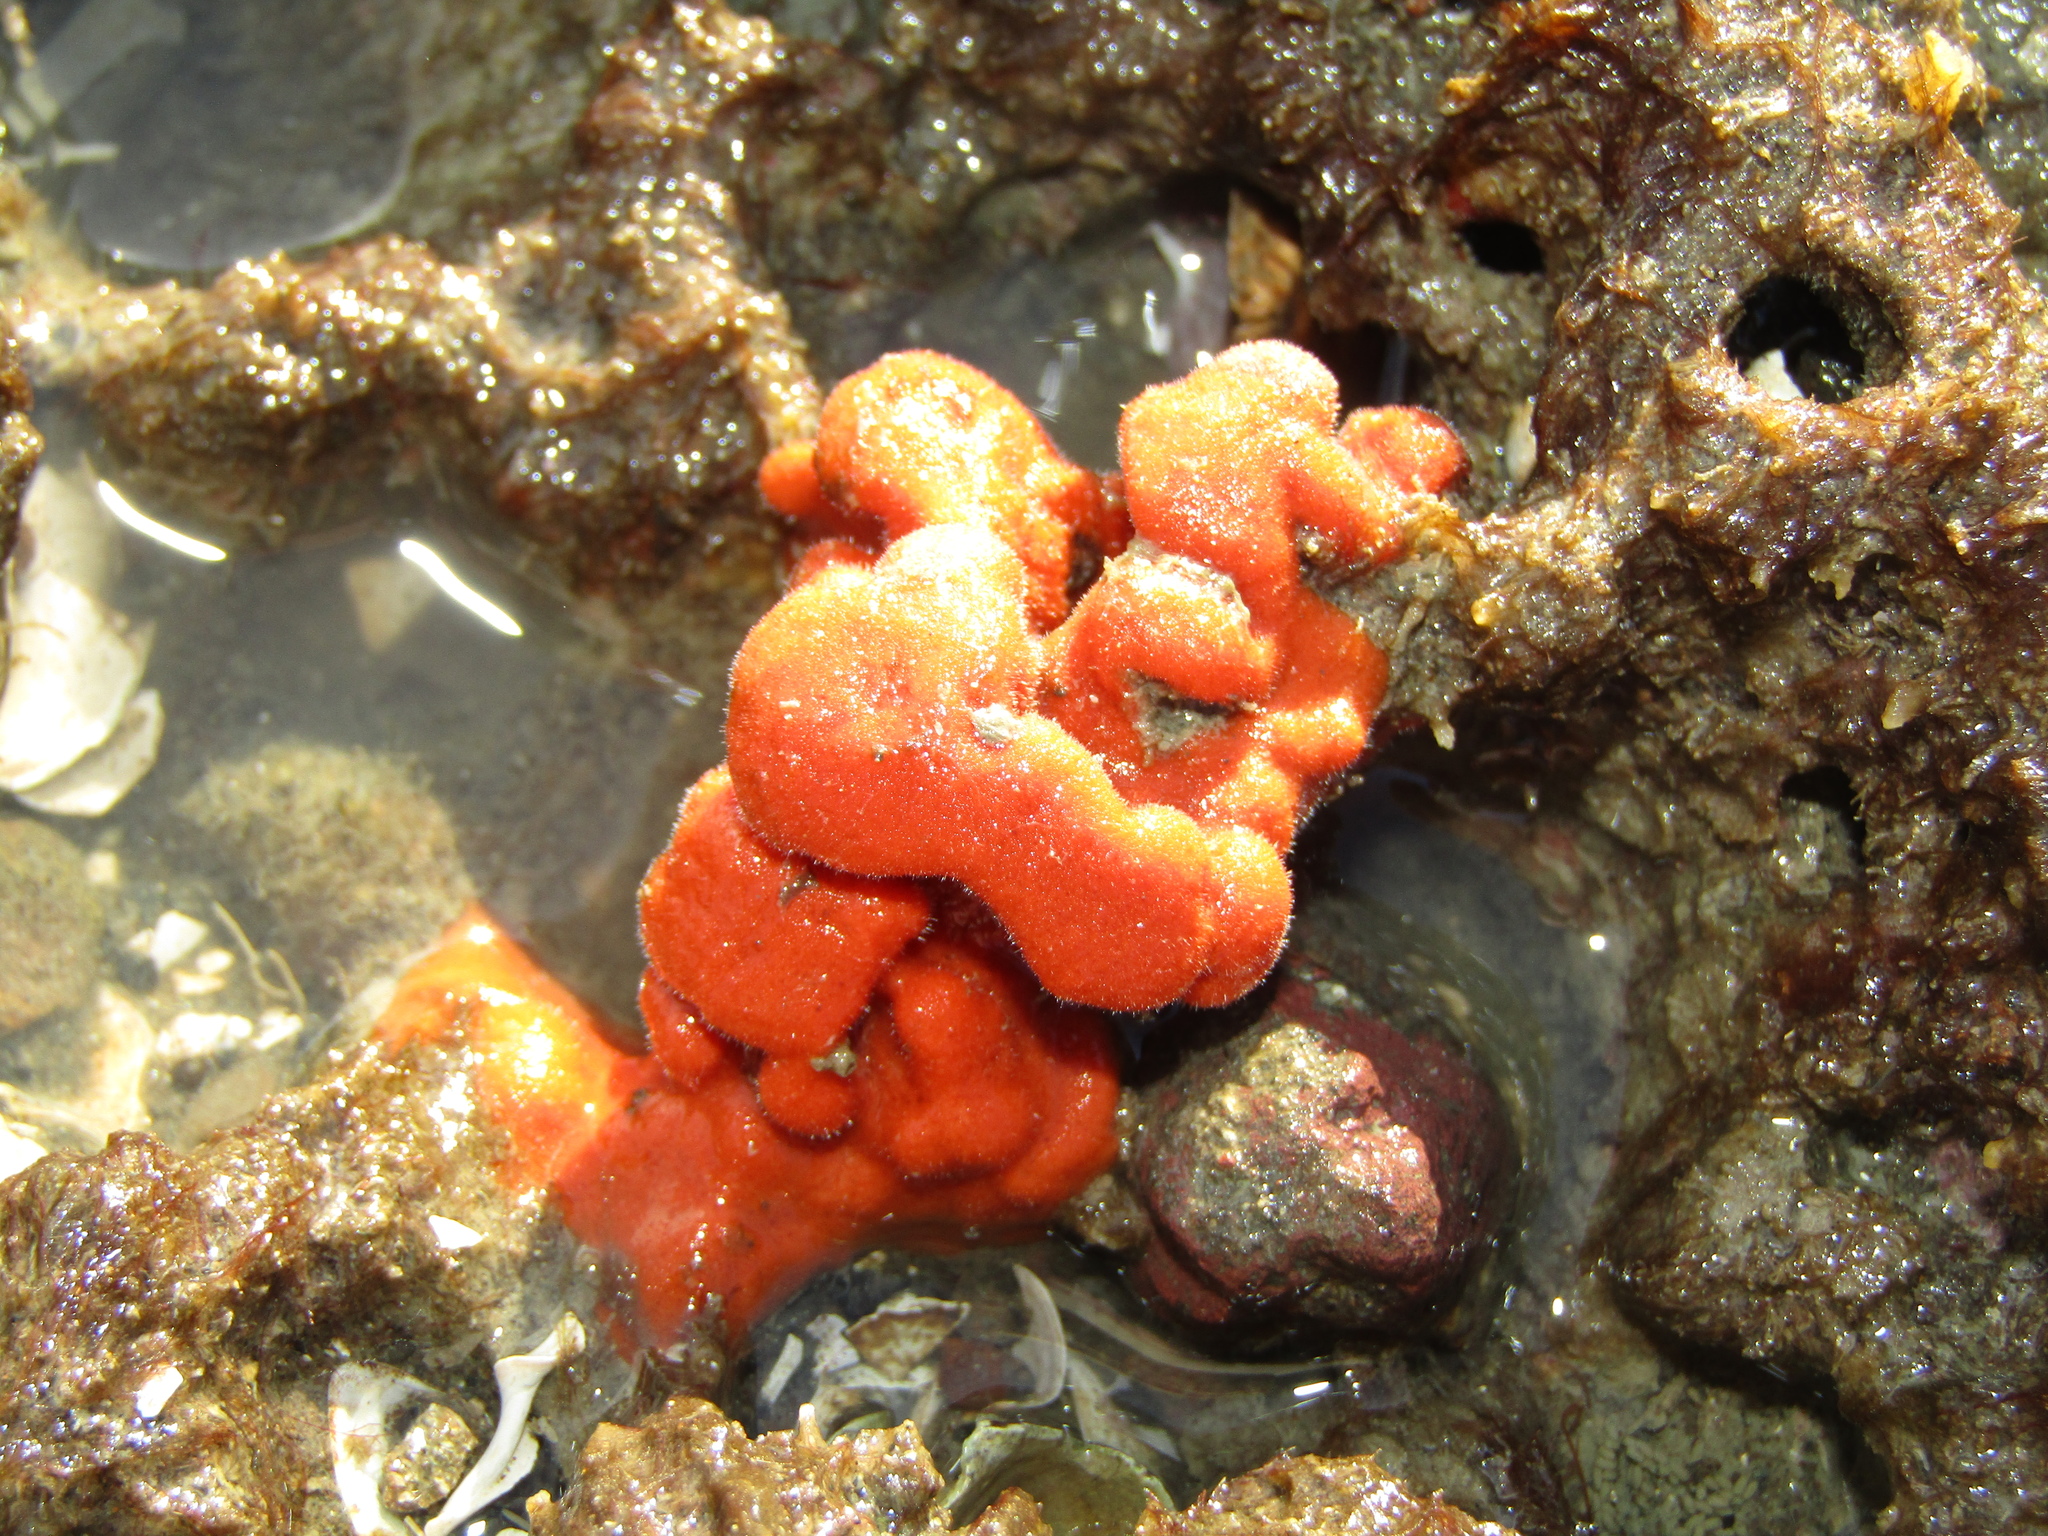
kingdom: Animalia
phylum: Porifera
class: Demospongiae
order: Poecilosclerida
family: Crellidae
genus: Crella
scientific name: Crella incrustans
